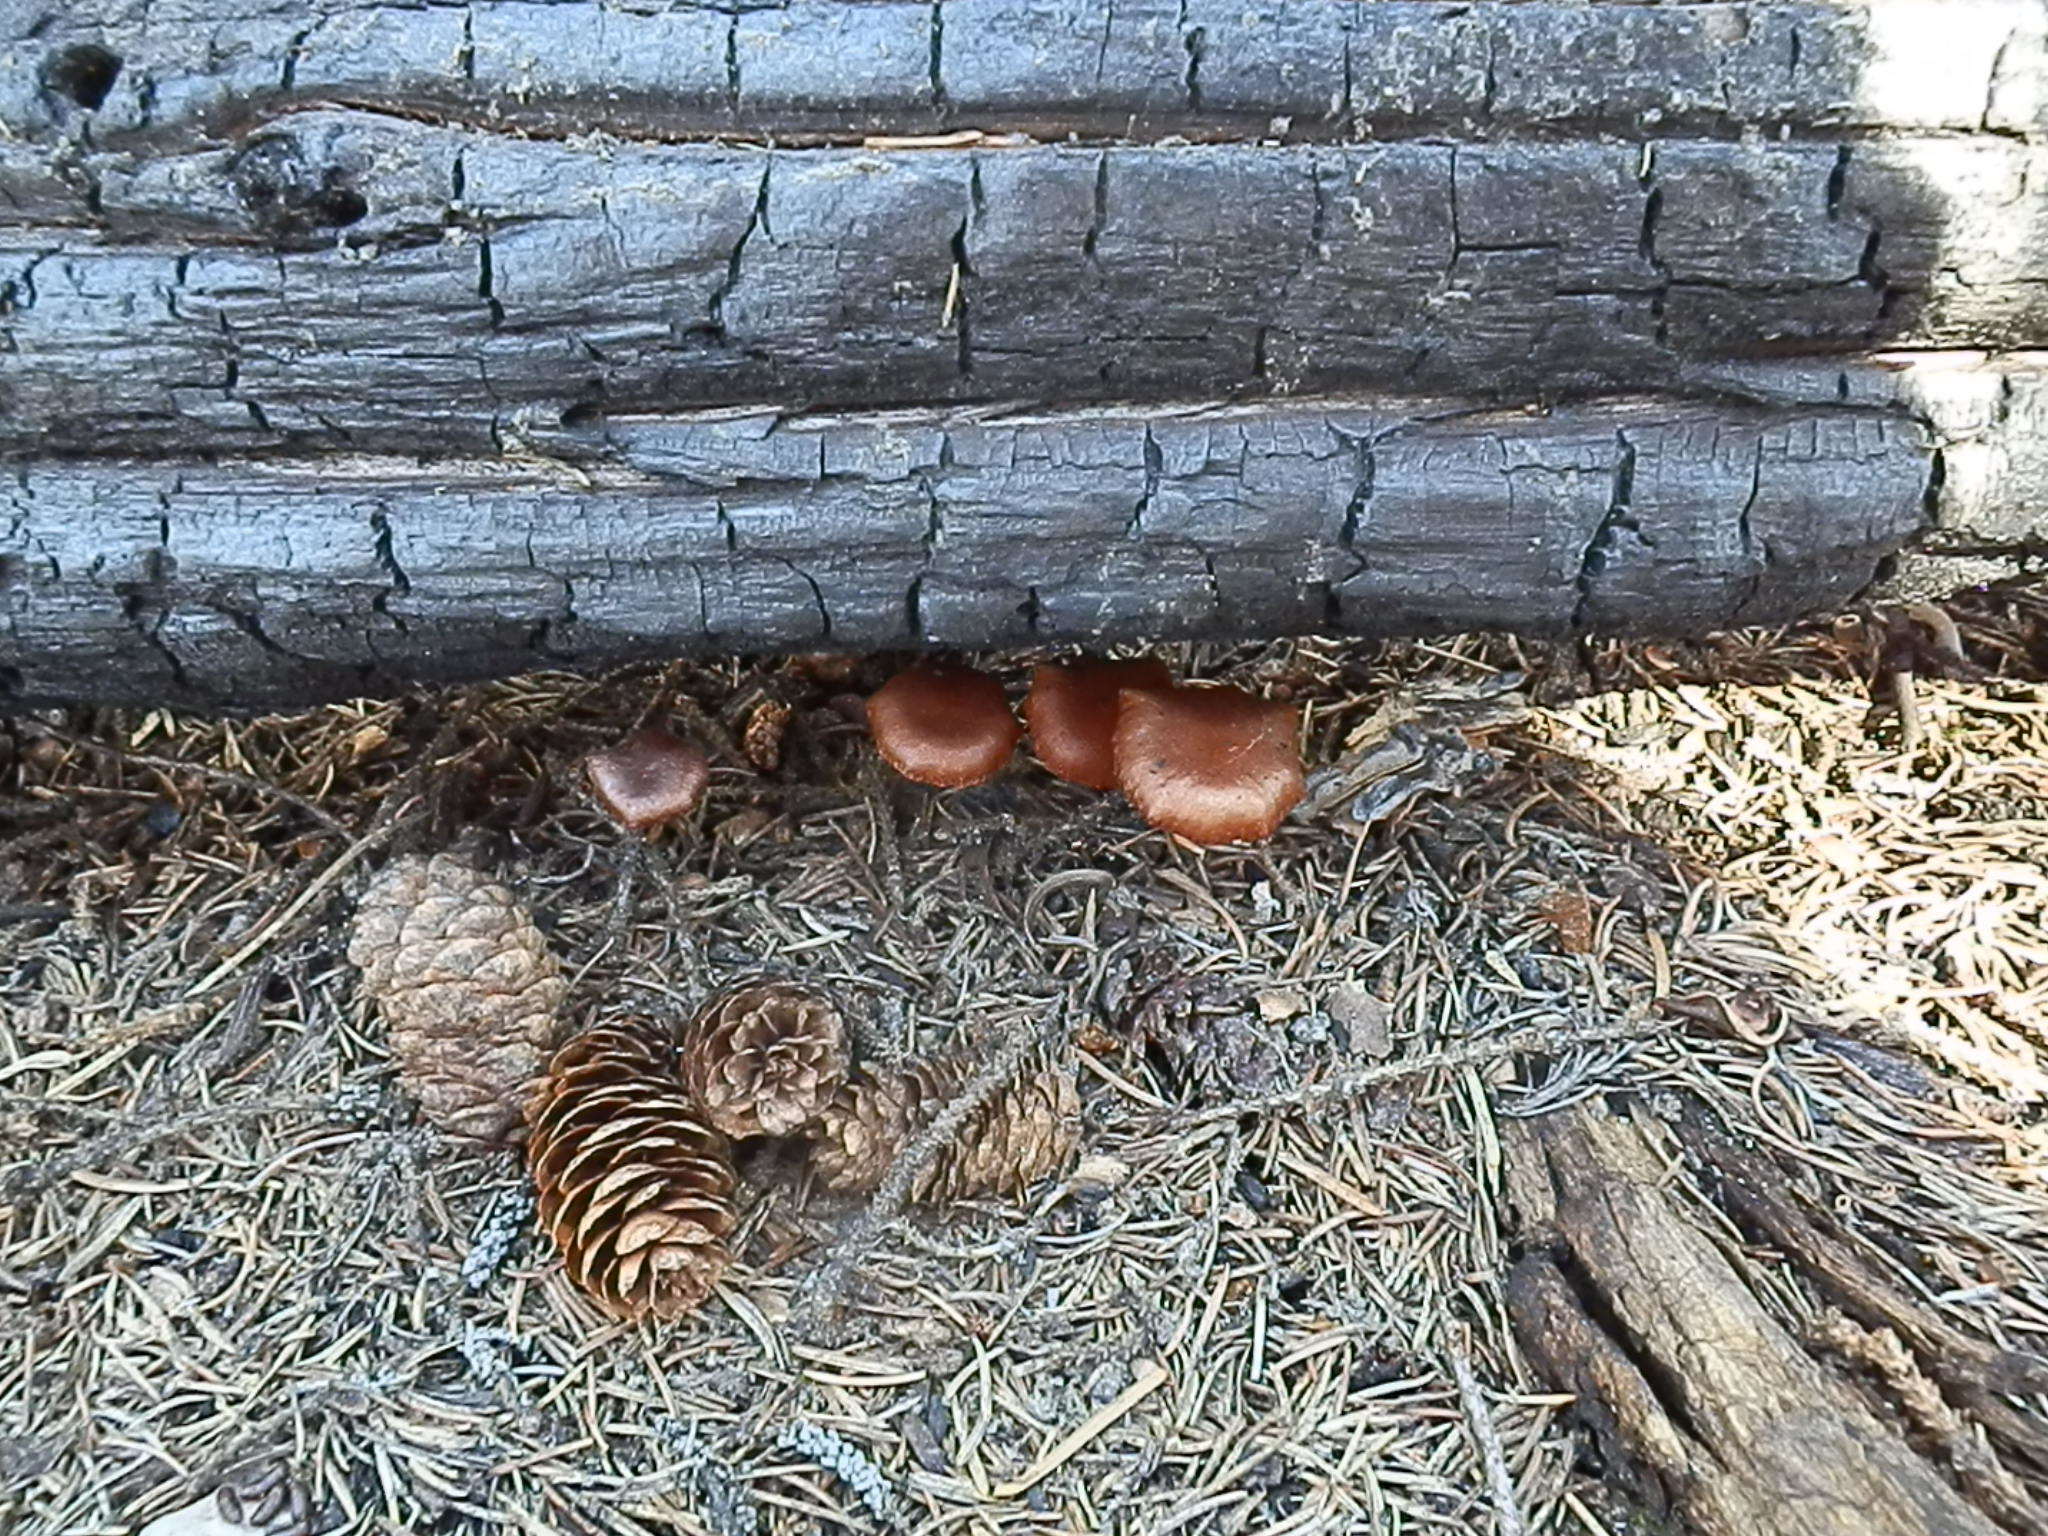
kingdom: Fungi
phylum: Basidiomycota
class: Agaricomycetes
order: Agaricales
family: Crassisporiaceae
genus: Crassisporium
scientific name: Crassisporium funariophilum
